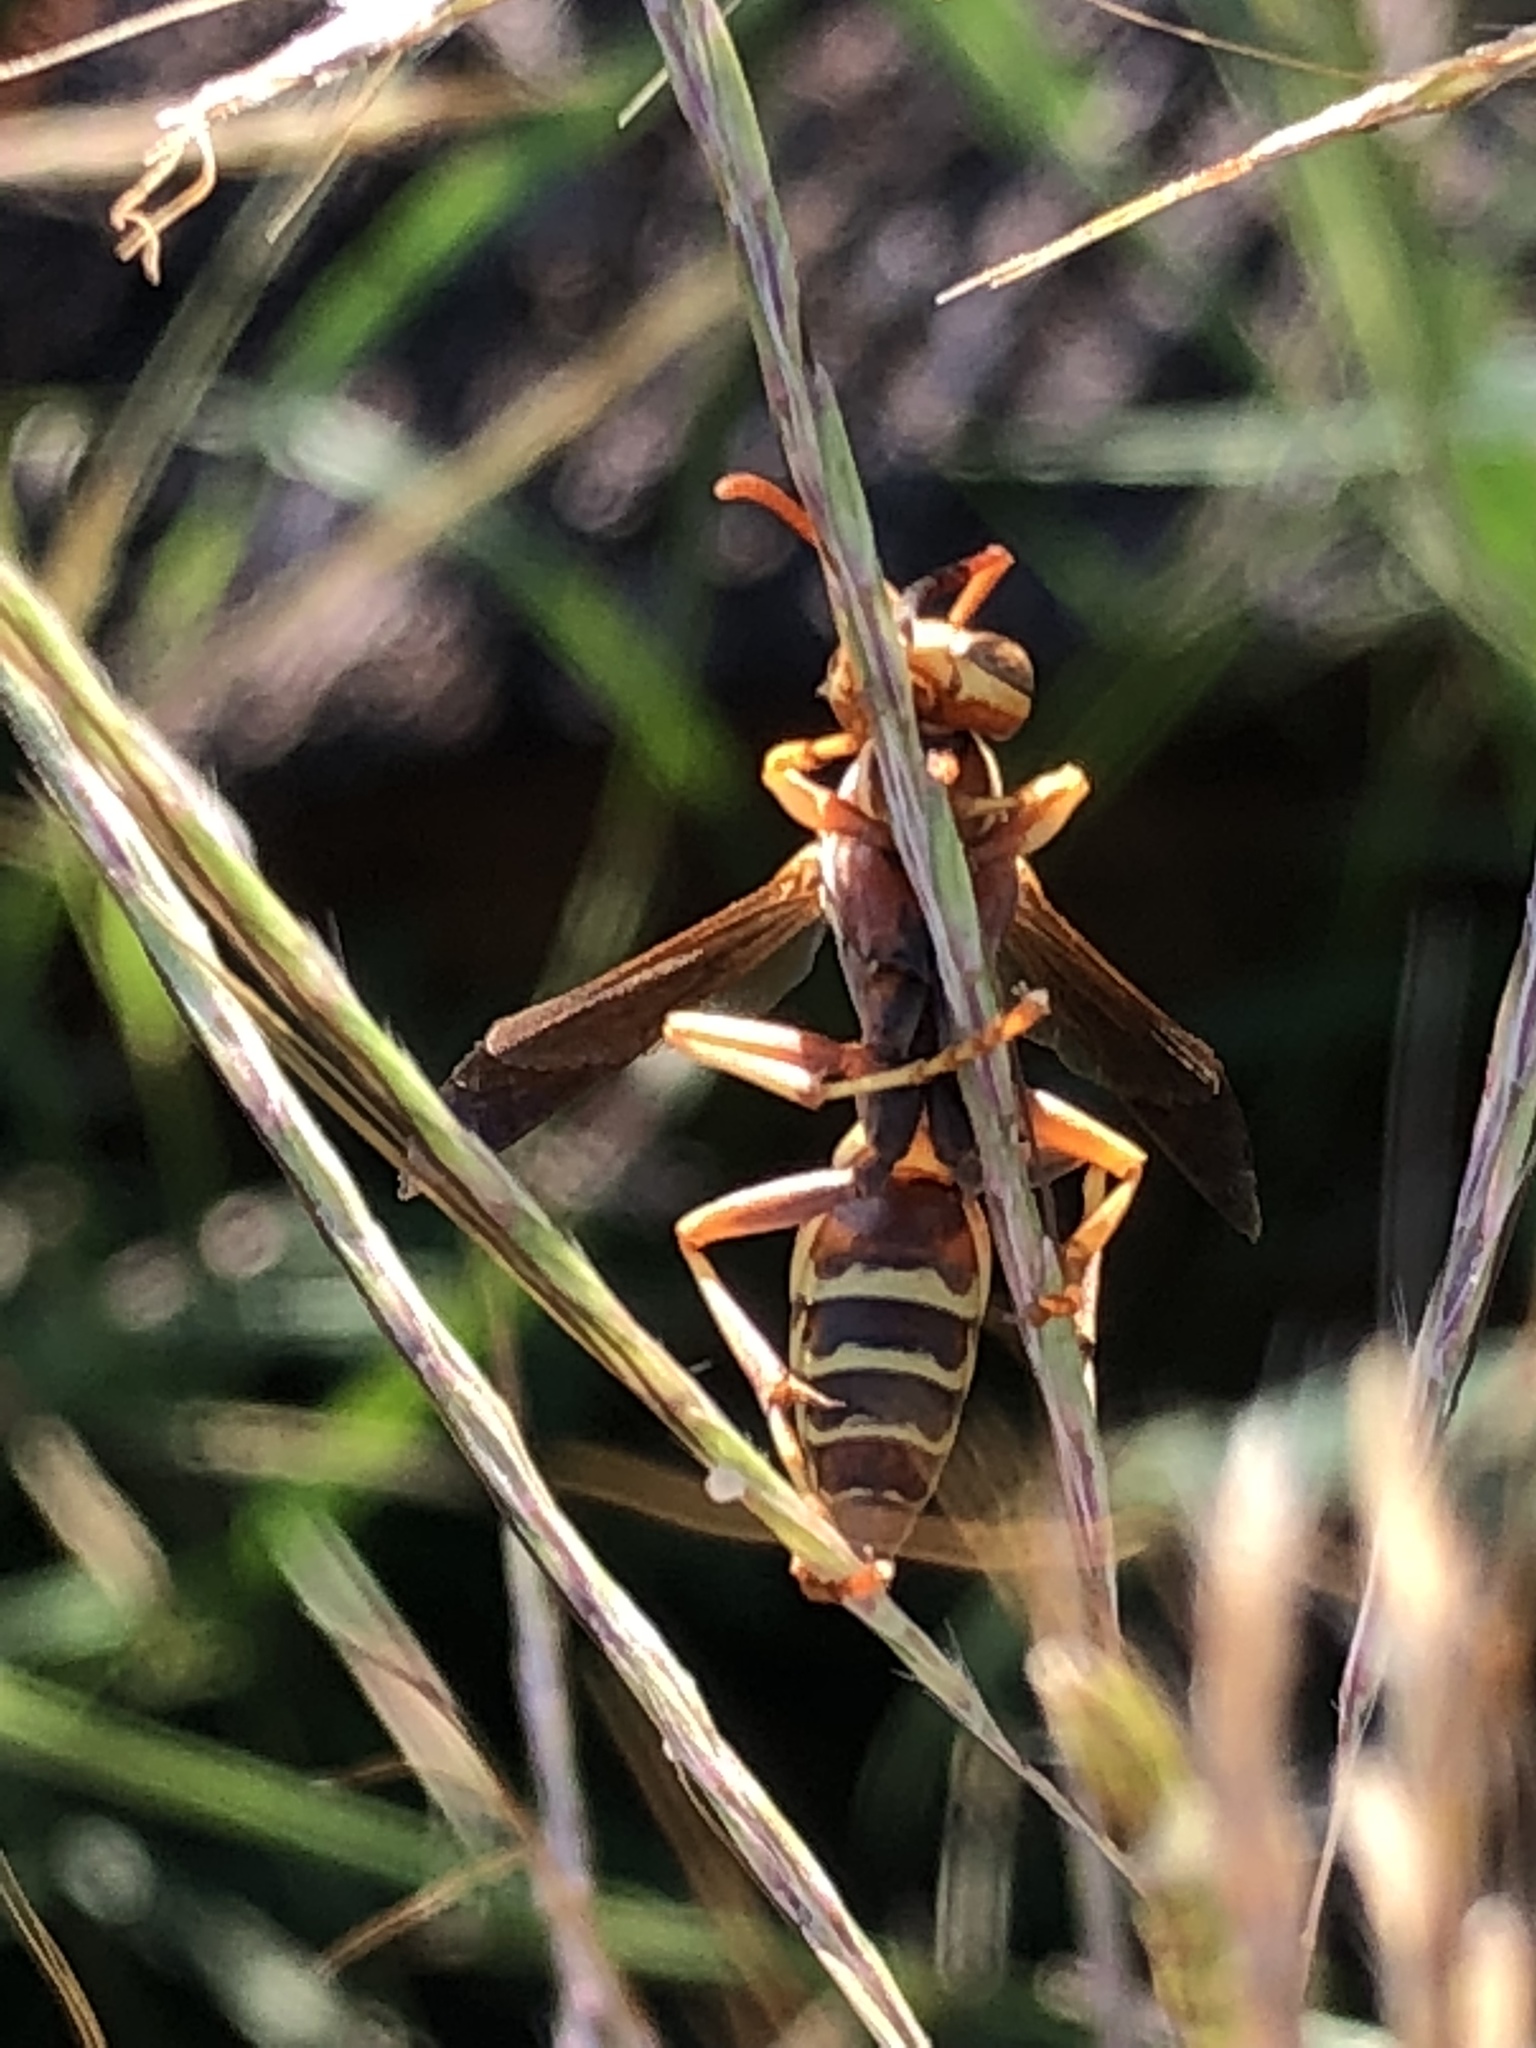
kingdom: Animalia
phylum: Arthropoda
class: Insecta
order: Hymenoptera
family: Eumenidae
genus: Polistes
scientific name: Polistes dorsalis
